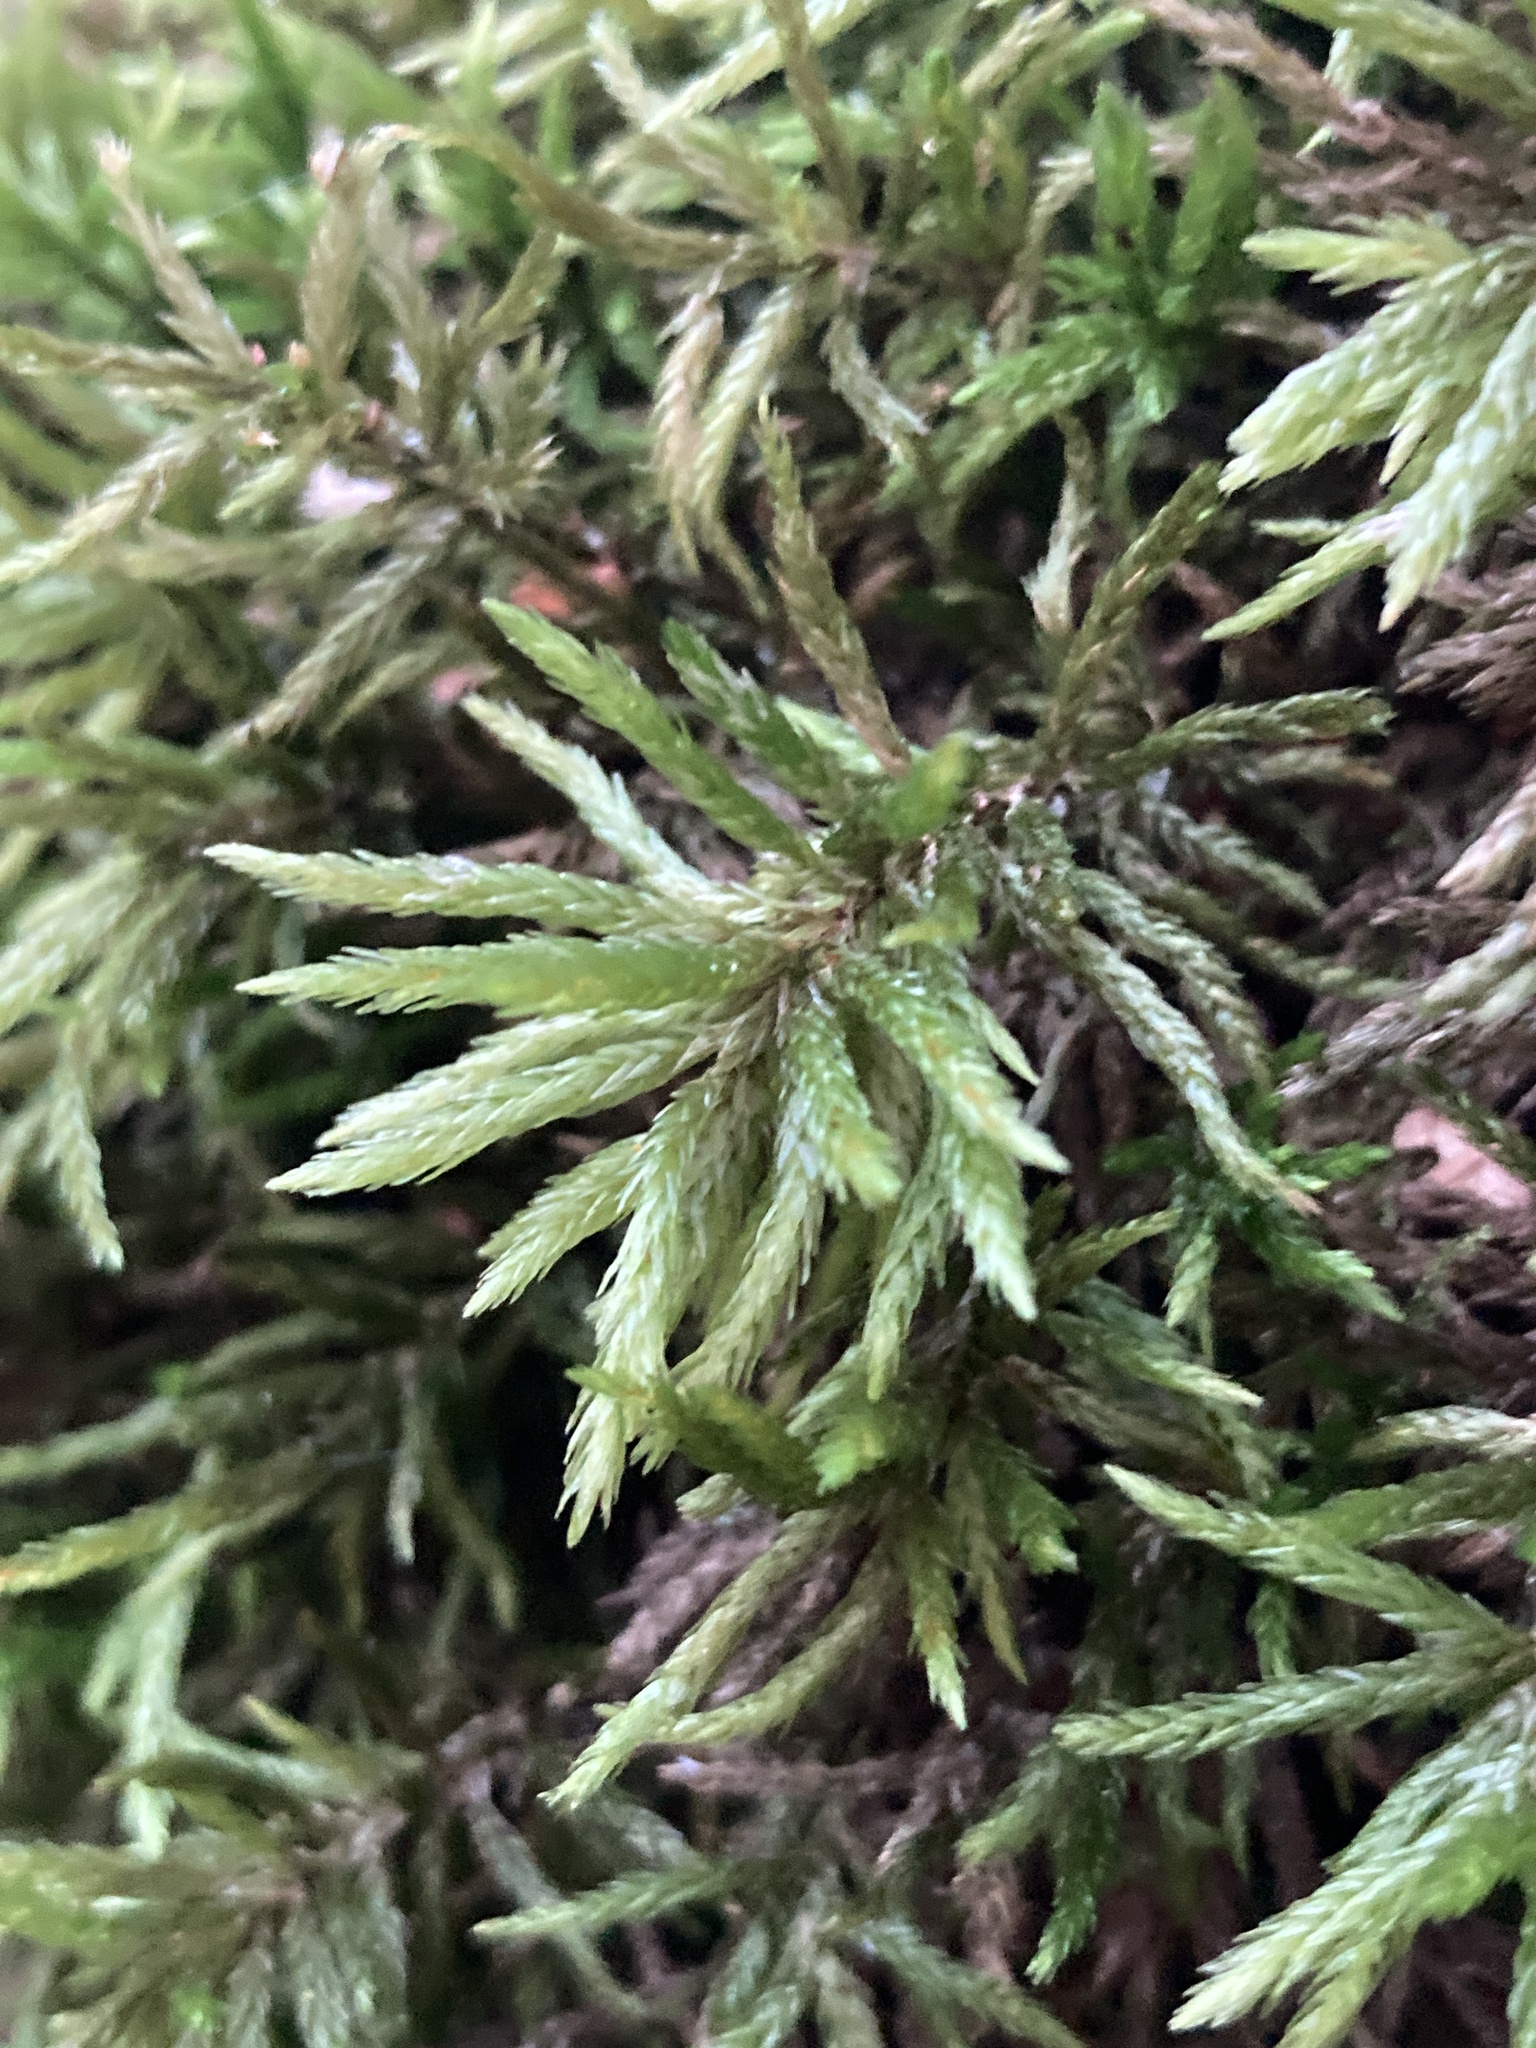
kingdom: Plantae
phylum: Bryophyta
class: Bryopsida
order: Hypnales
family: Climaciaceae
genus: Climacium
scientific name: Climacium dendroides
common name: Northern tree moss
